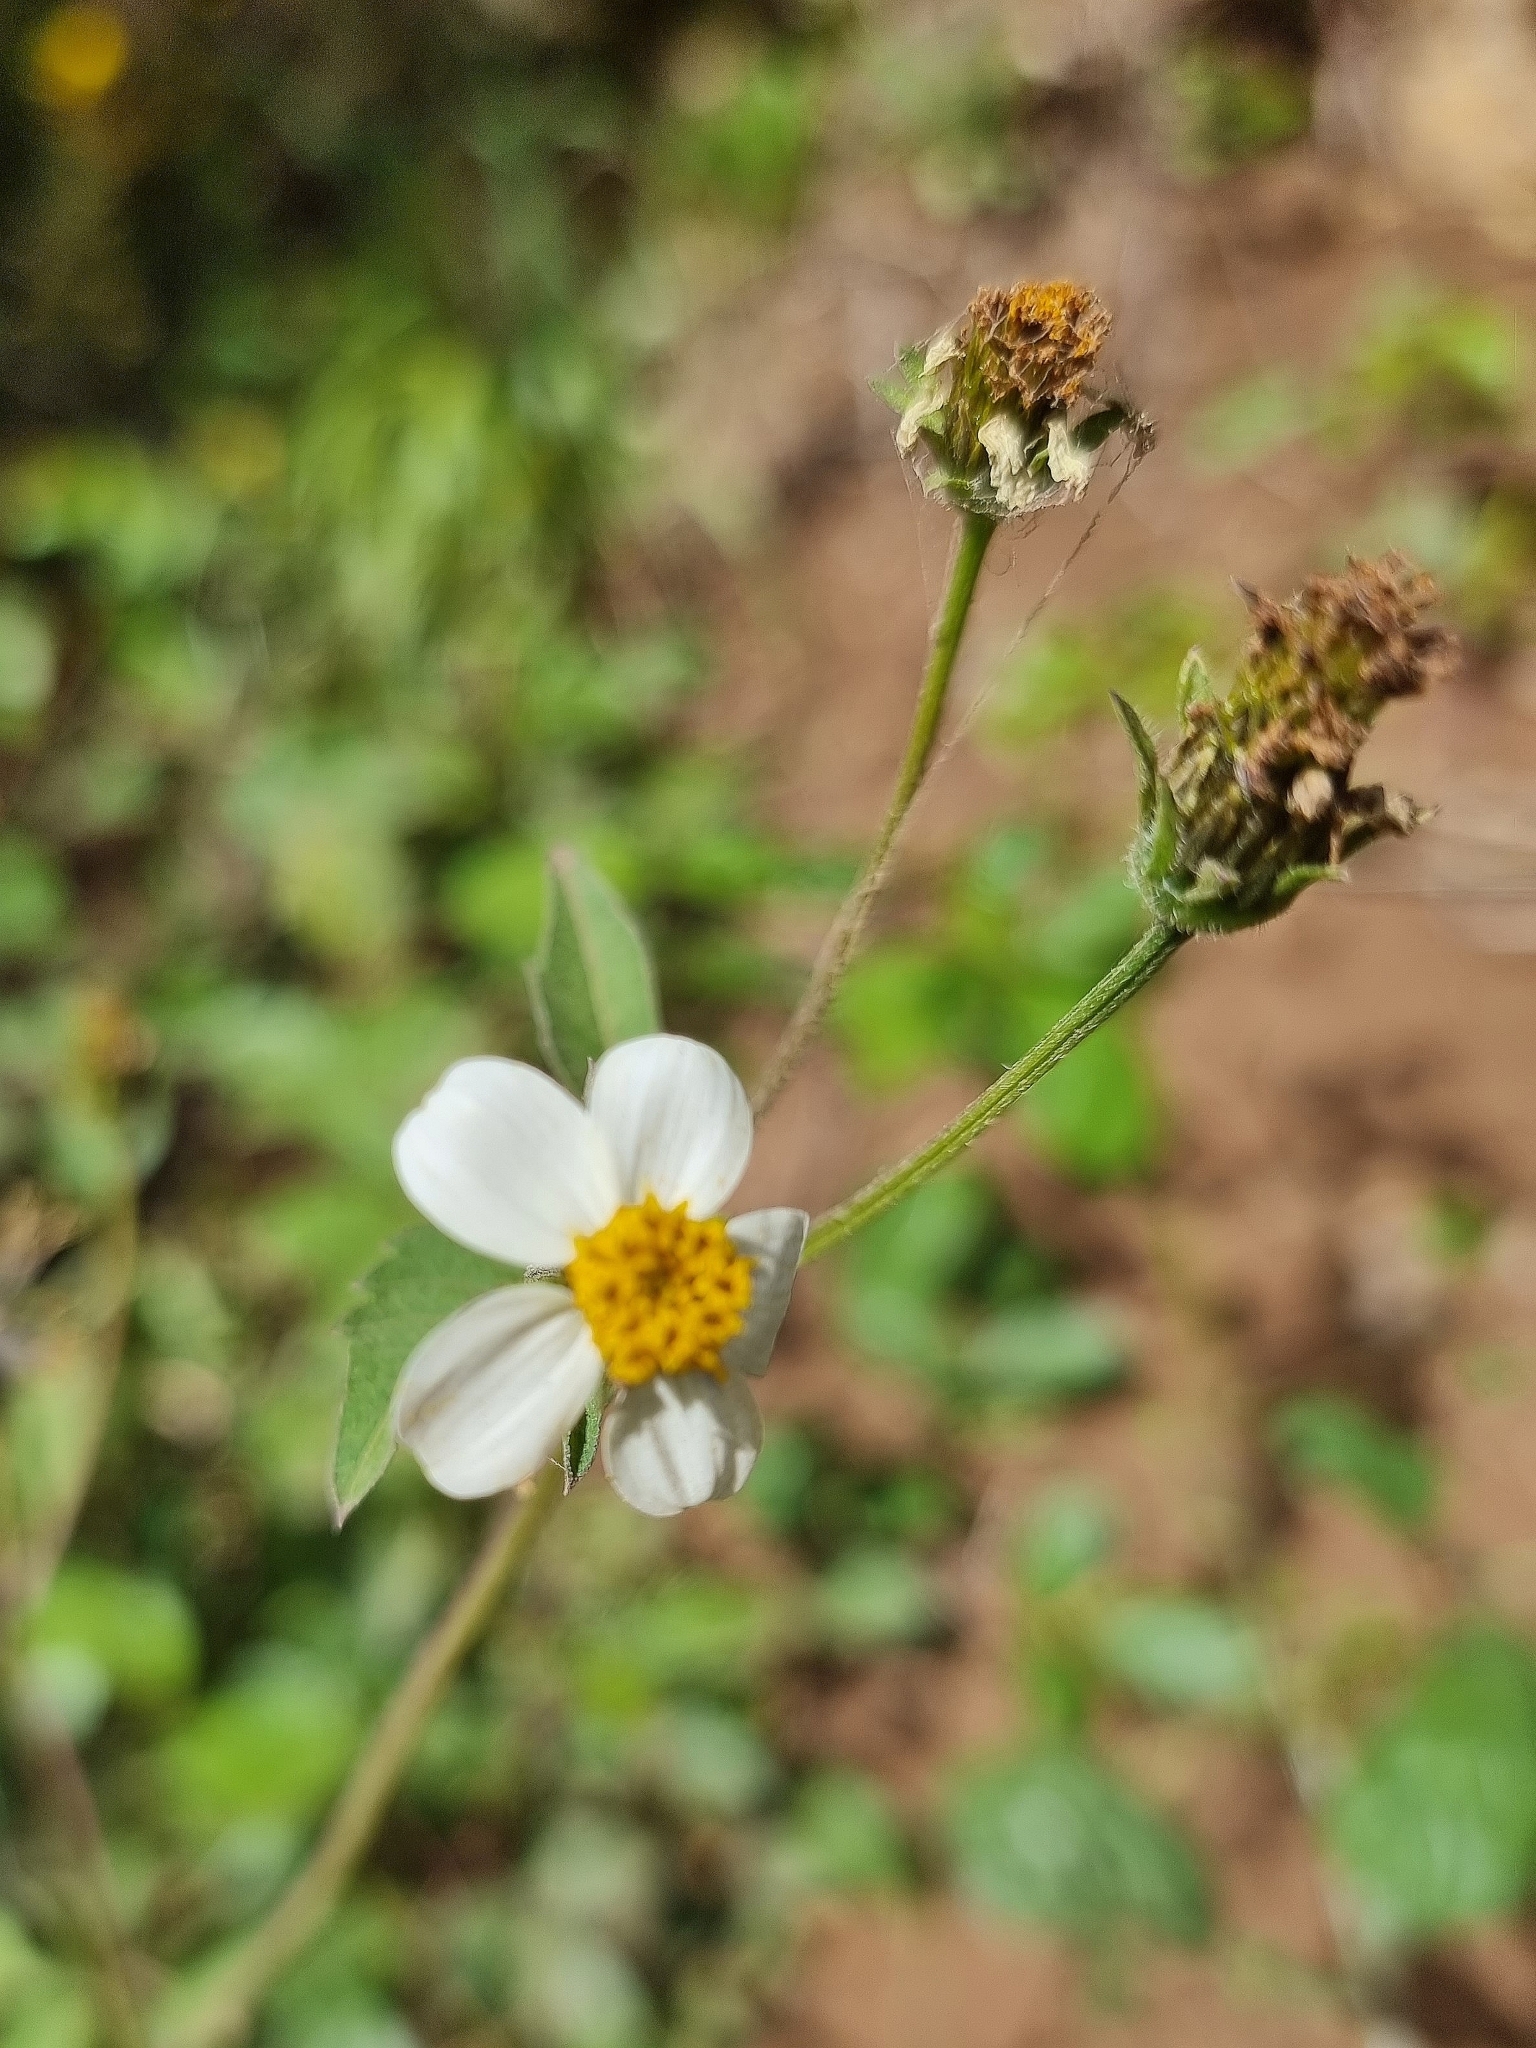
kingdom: Plantae
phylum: Tracheophyta
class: Magnoliopsida
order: Asterales
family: Asteraceae
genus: Bidens
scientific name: Bidens pilosa
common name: Black-jack
